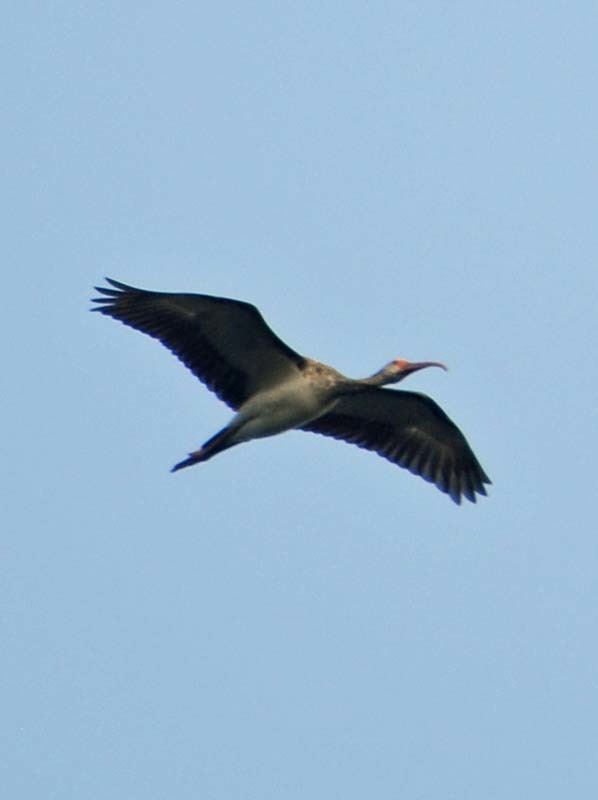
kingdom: Animalia
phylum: Chordata
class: Aves
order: Pelecaniformes
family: Threskiornithidae
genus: Eudocimus
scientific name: Eudocimus albus
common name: White ibis
